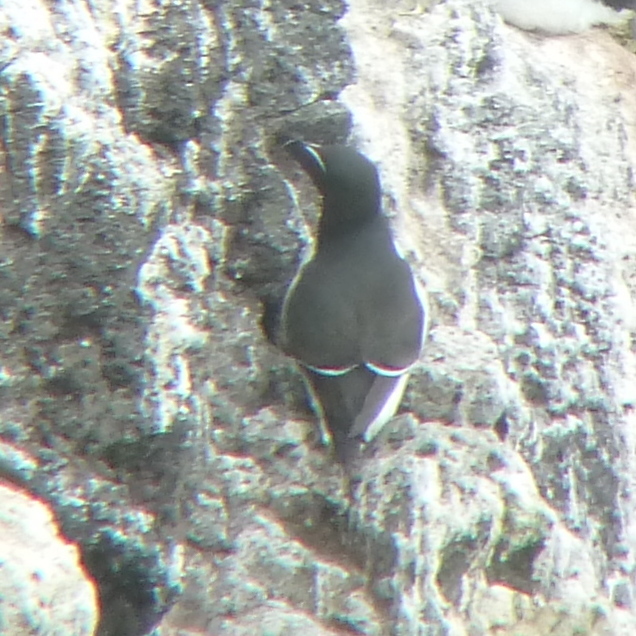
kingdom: Animalia
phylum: Chordata
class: Aves
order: Charadriiformes
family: Alcidae
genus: Alca
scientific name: Alca torda
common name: Razorbill
